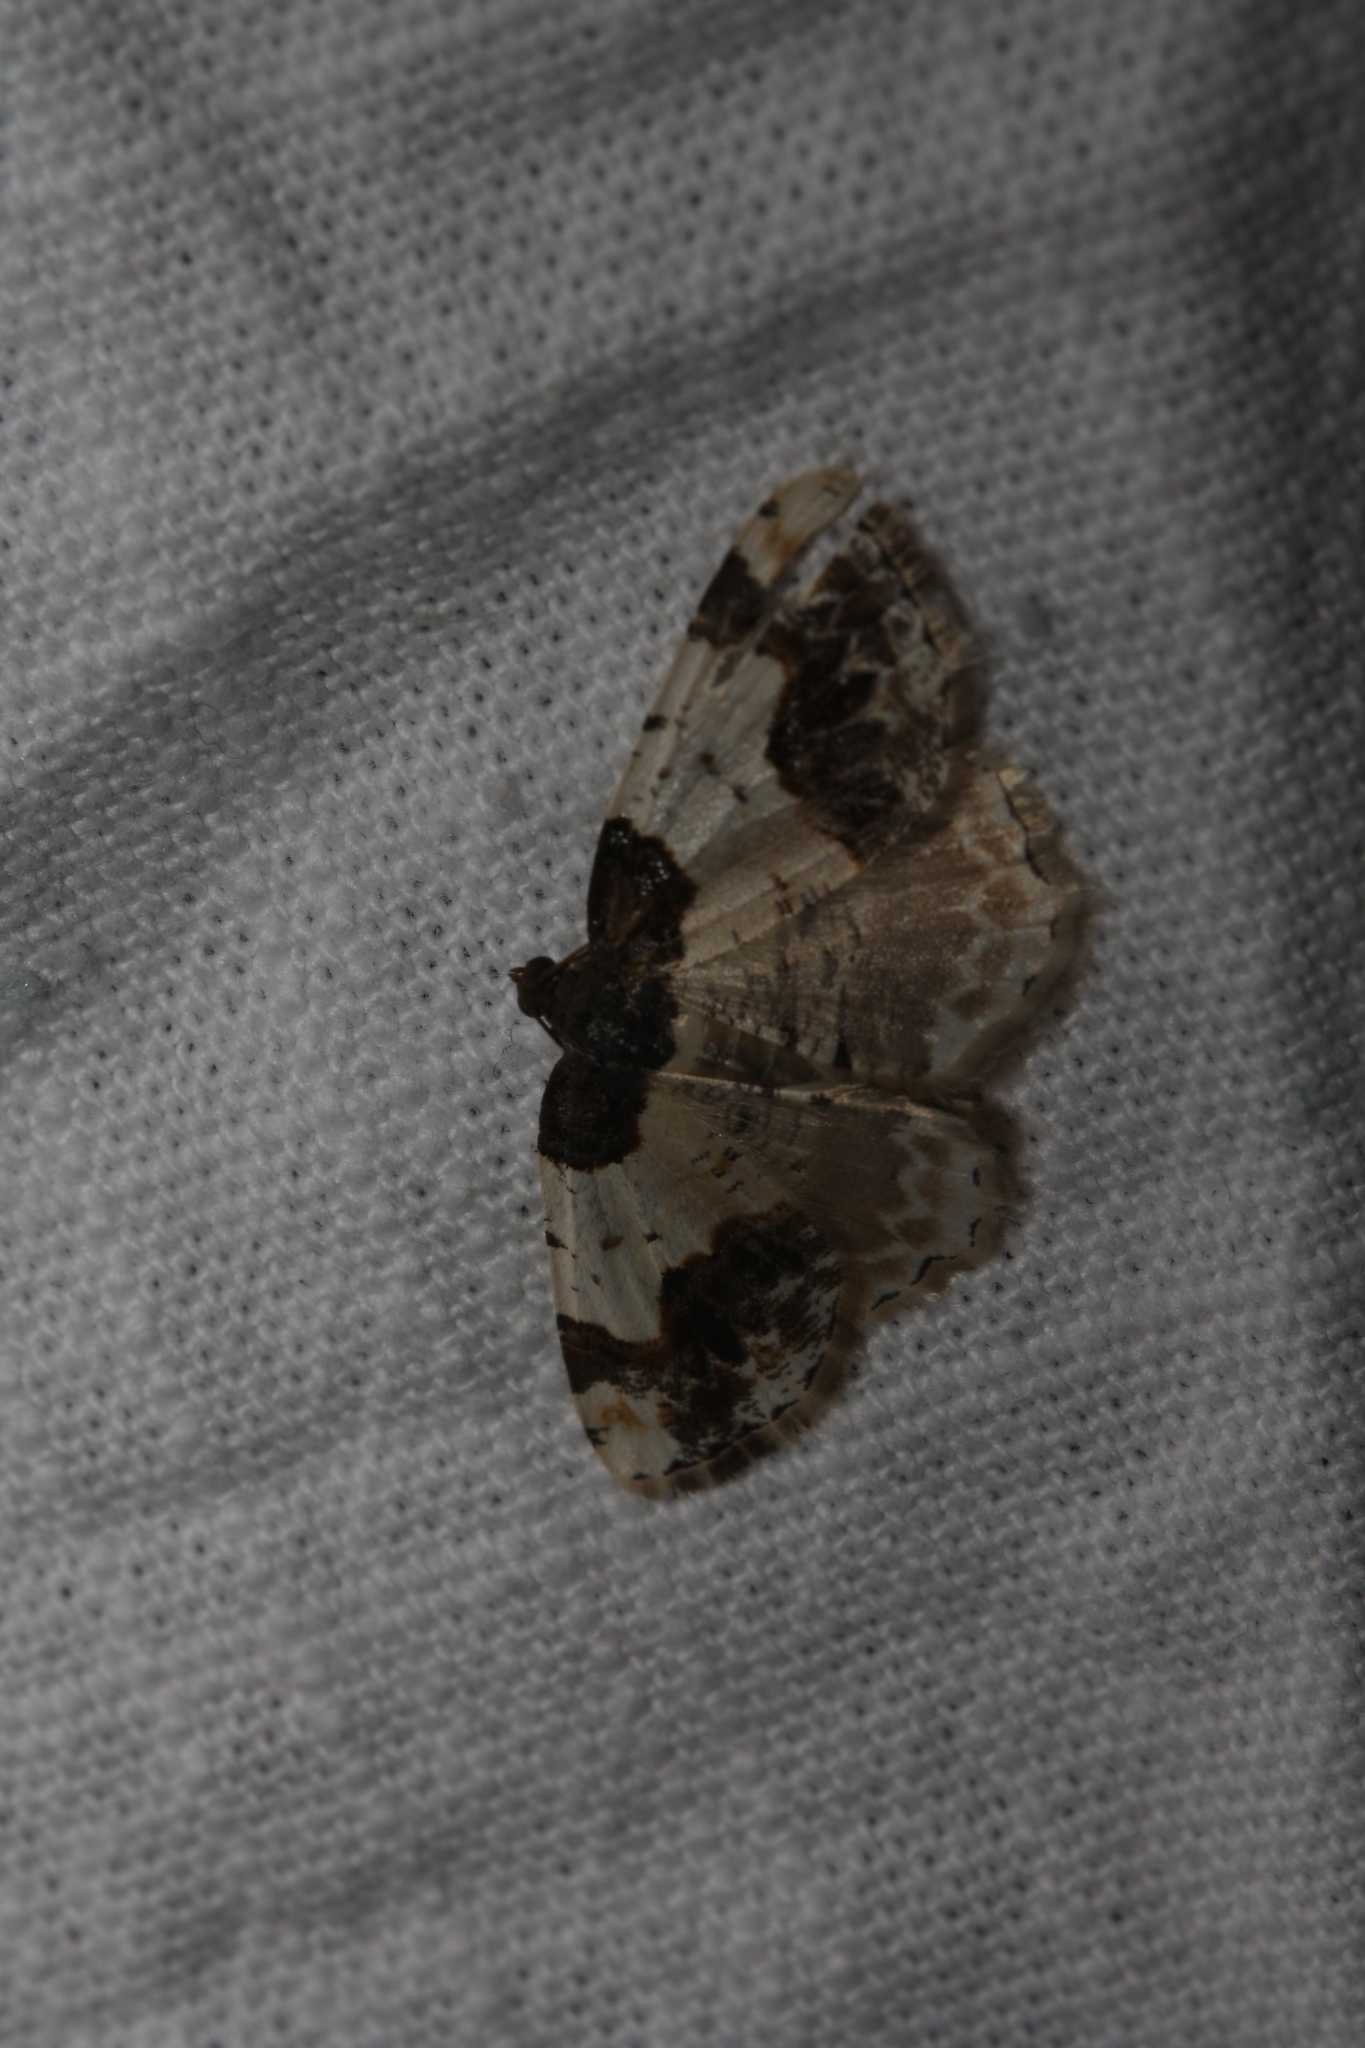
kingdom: Animalia
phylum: Arthropoda
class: Insecta
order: Lepidoptera
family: Geometridae
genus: Ligdia
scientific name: Ligdia adustata
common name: Scorched carpet
